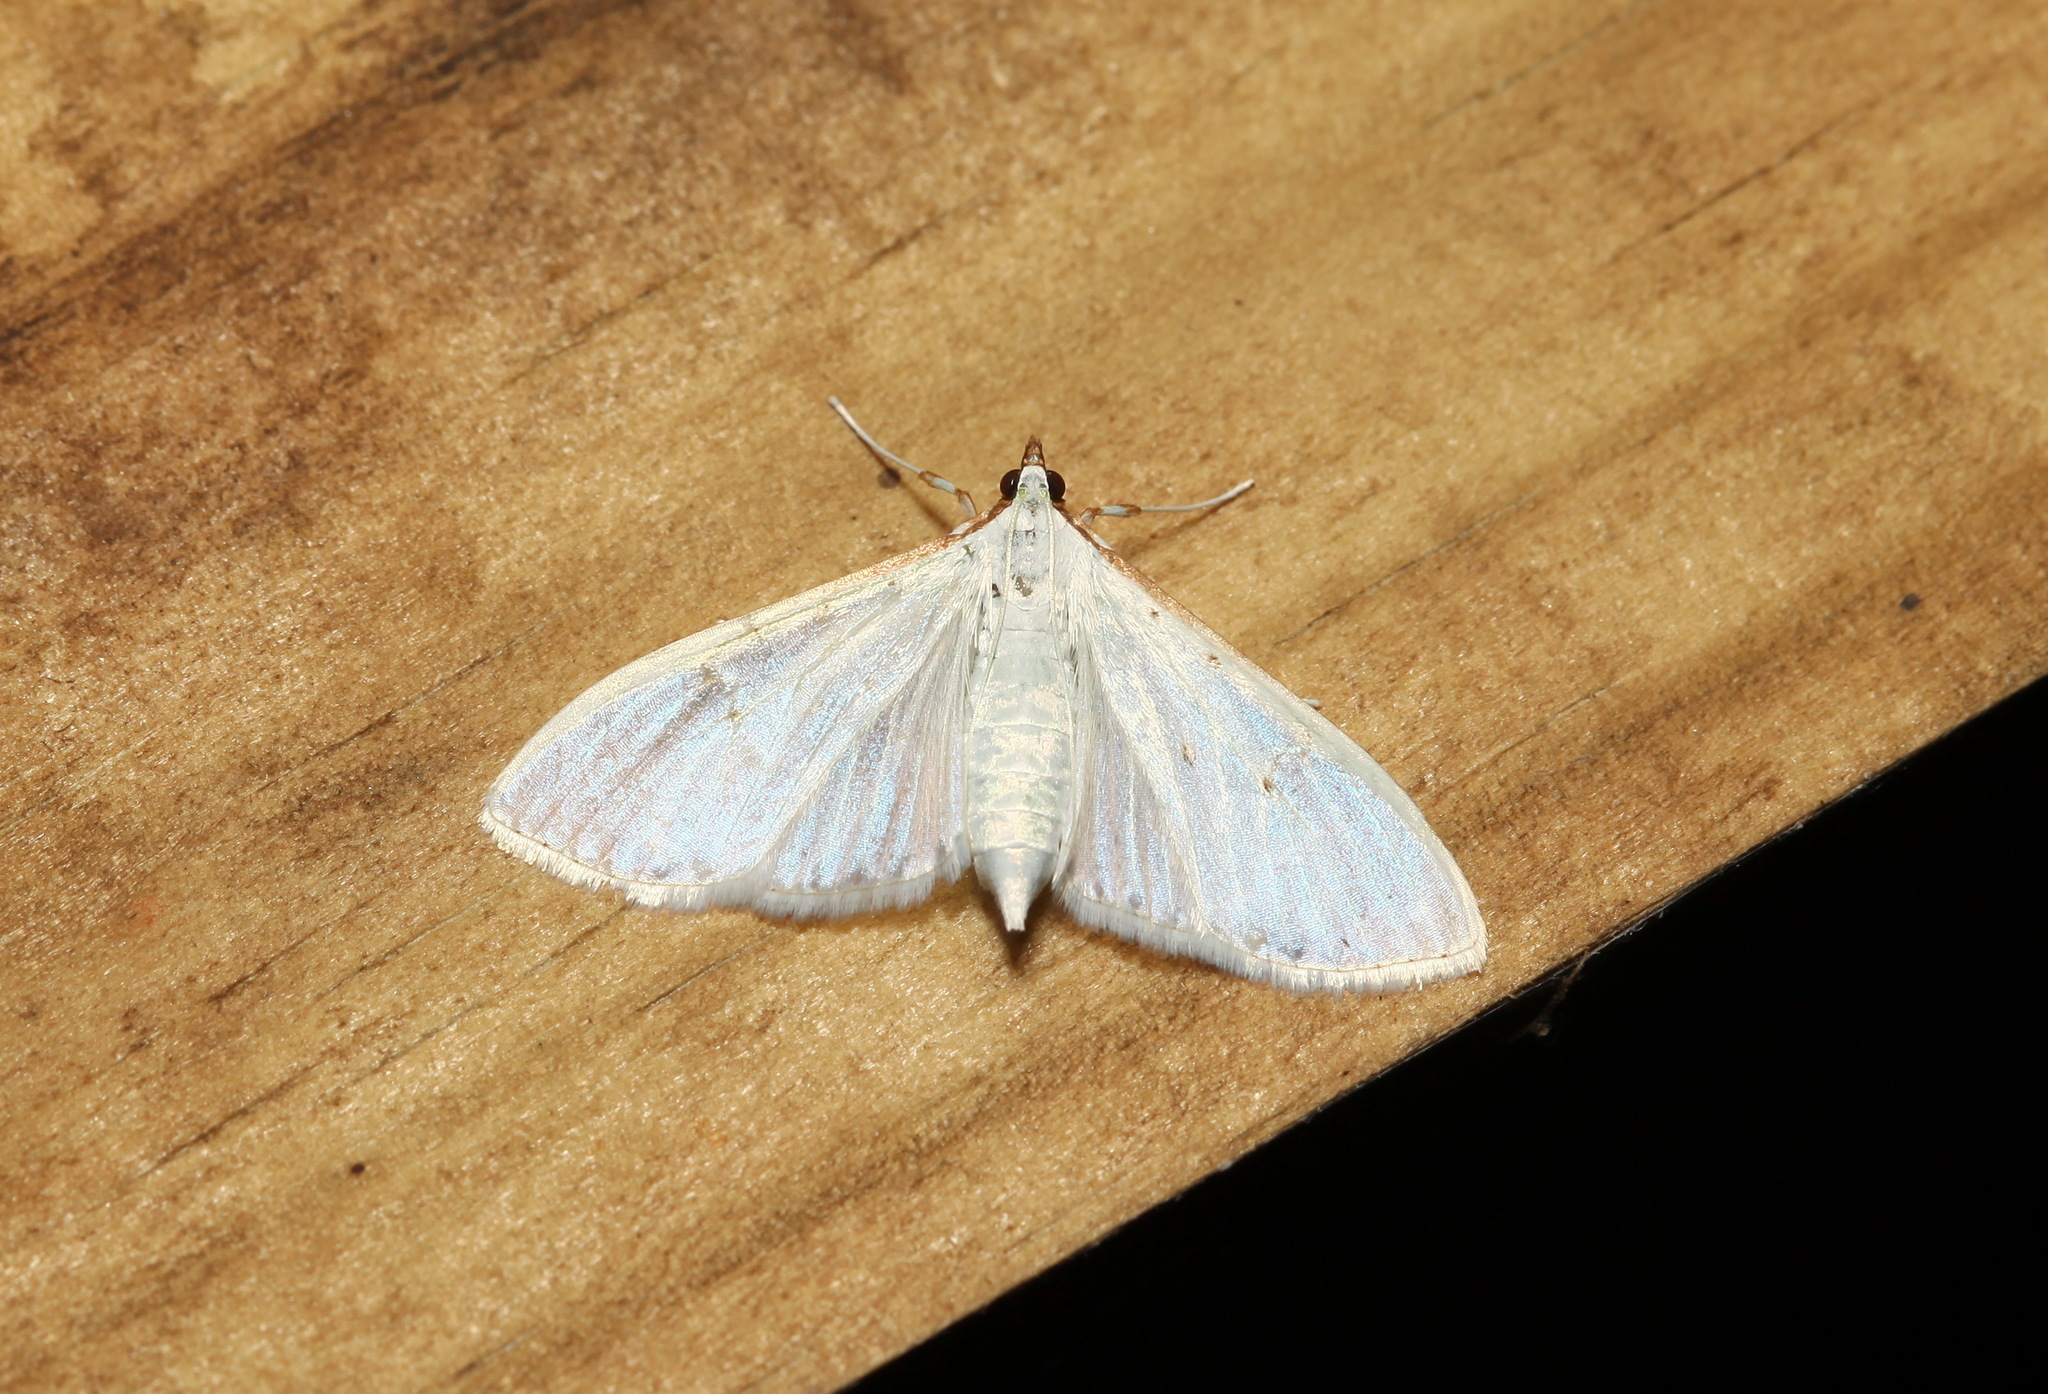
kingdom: Animalia
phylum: Arthropoda
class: Insecta
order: Lepidoptera
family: Crambidae
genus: Palpita
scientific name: Palpita vitrealis
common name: Olive-tree pearl
